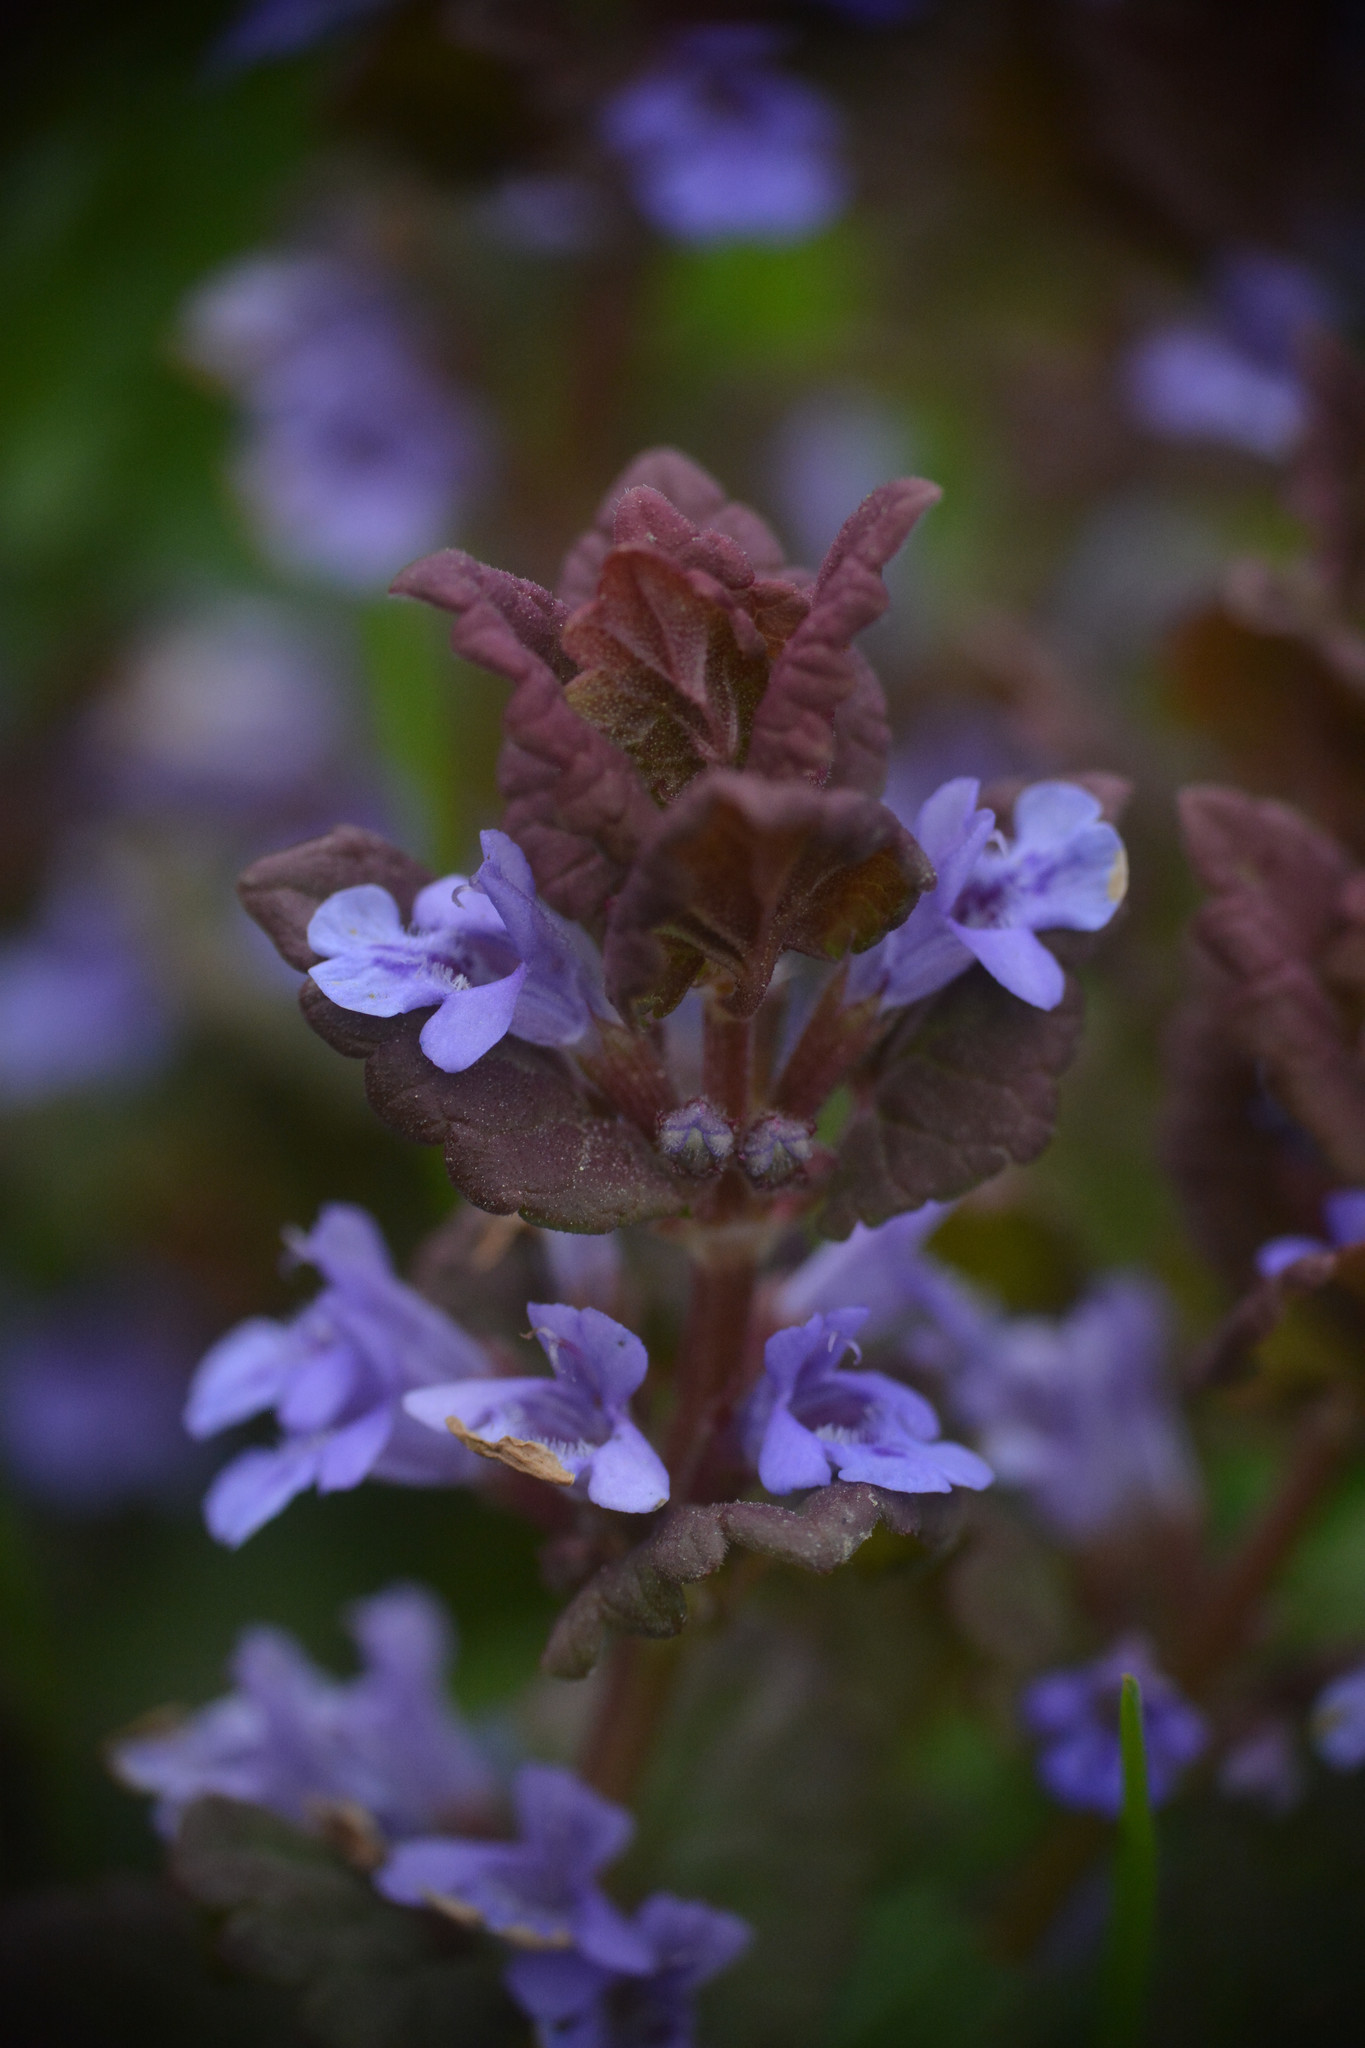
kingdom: Plantae
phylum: Tracheophyta
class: Magnoliopsida
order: Lamiales
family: Lamiaceae
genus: Glechoma
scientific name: Glechoma hederacea
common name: Ground ivy
